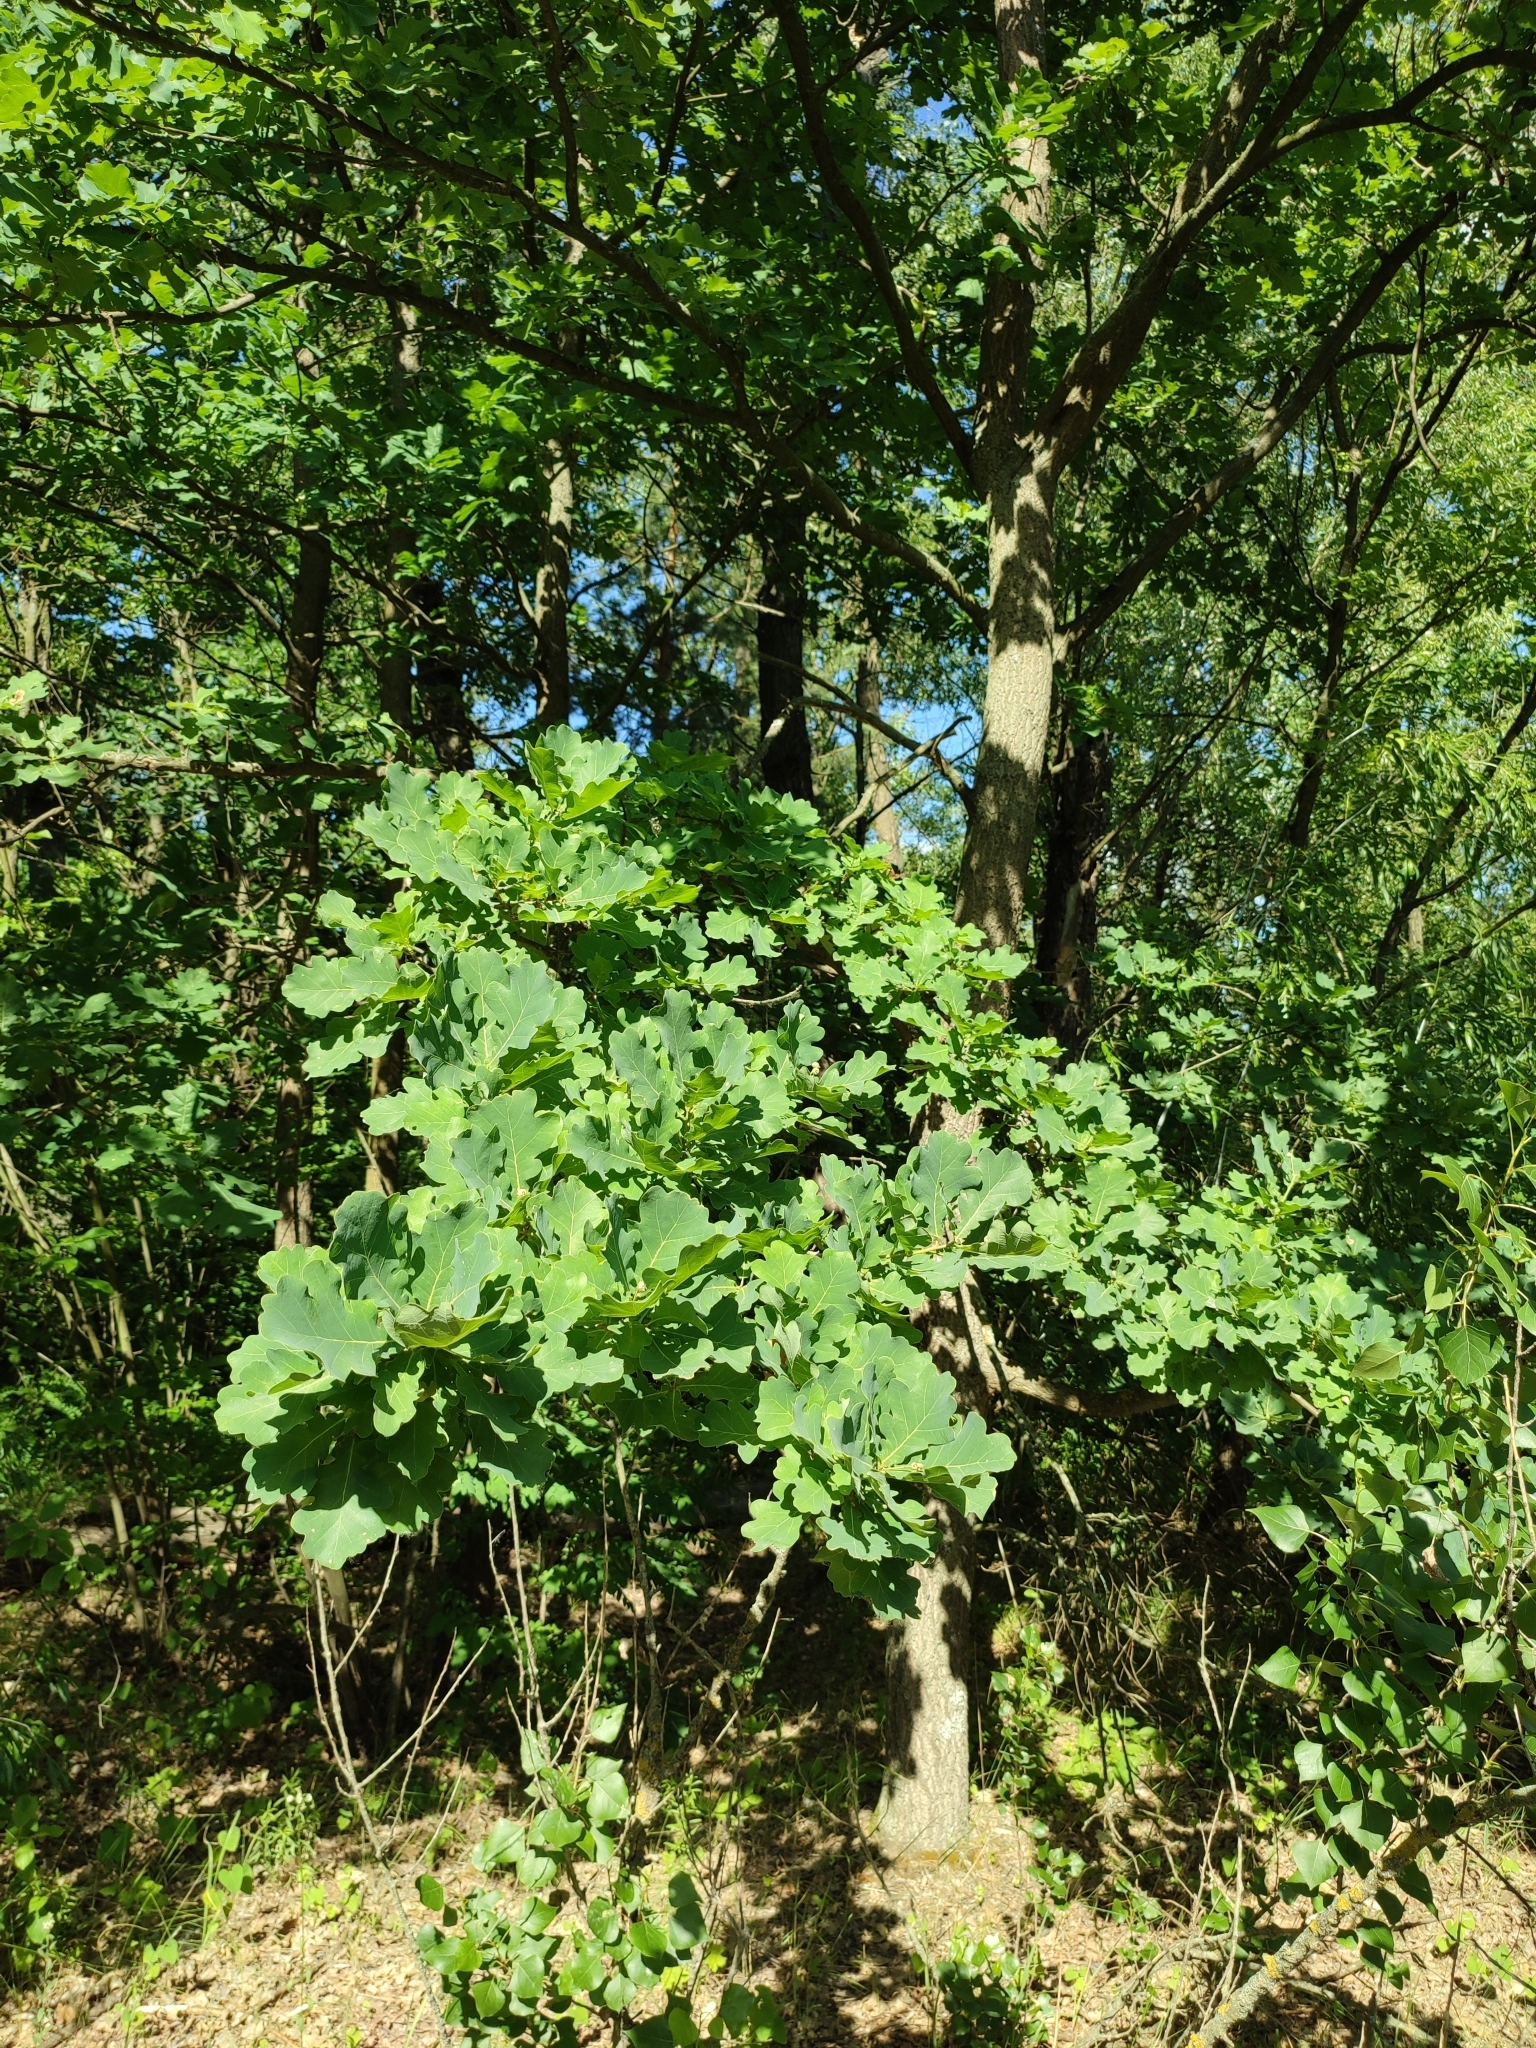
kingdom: Plantae
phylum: Tracheophyta
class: Magnoliopsida
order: Fagales
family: Fagaceae
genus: Quercus
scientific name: Quercus robur
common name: Pedunculate oak
